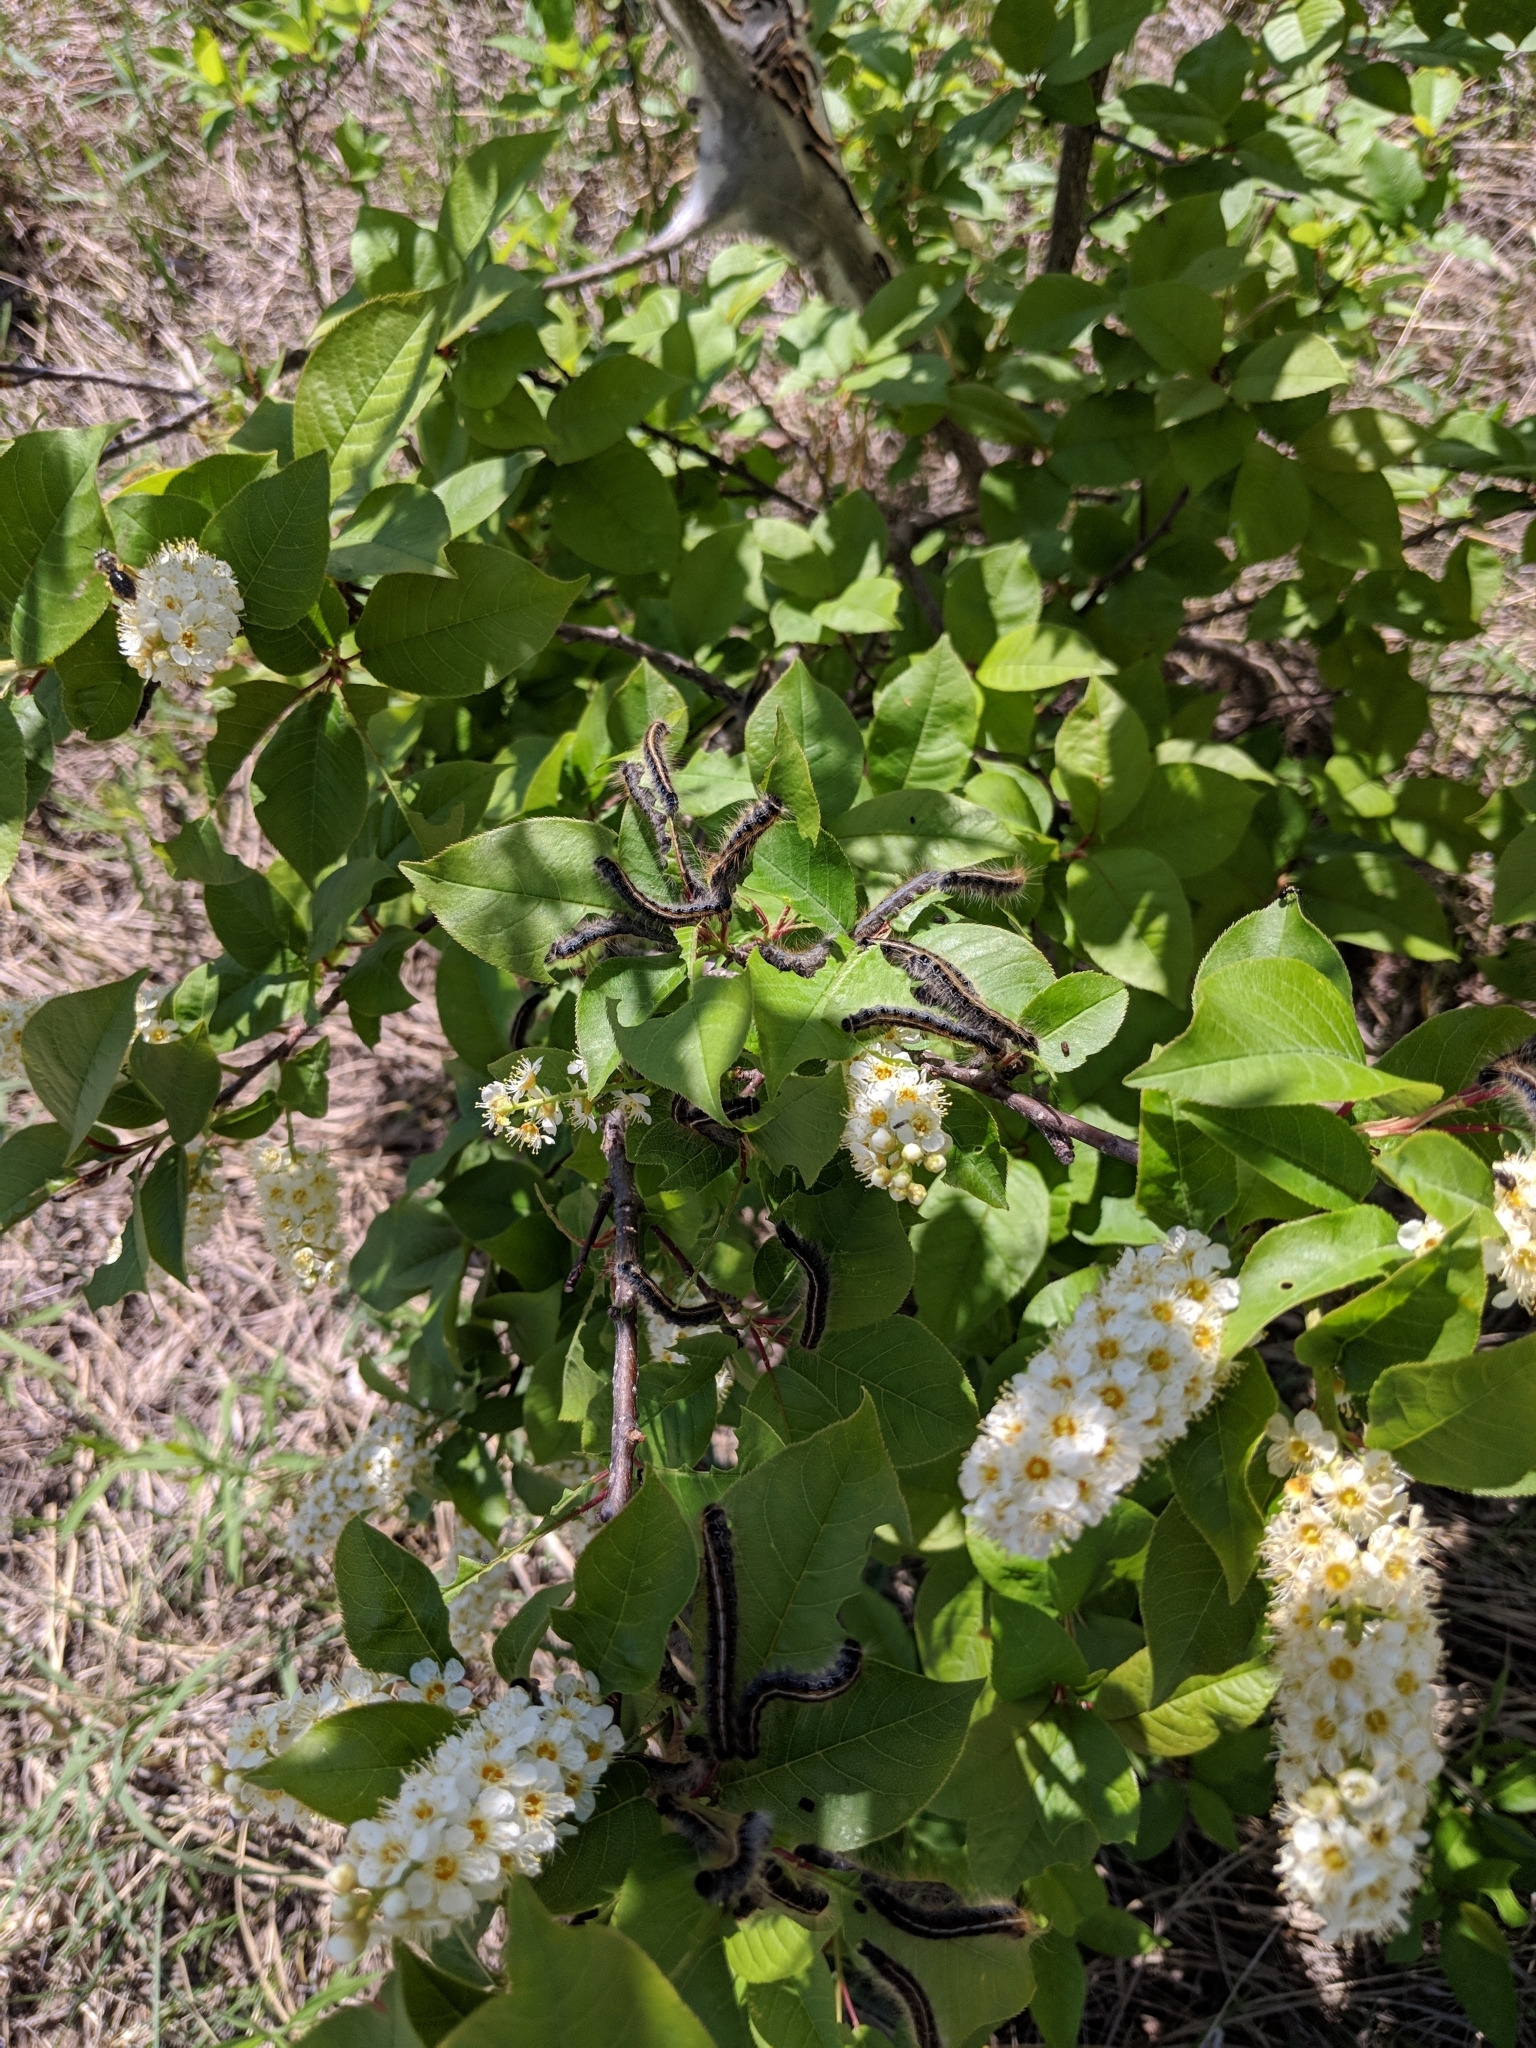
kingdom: Plantae
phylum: Tracheophyta
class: Magnoliopsida
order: Rosales
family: Rosaceae
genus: Prunus
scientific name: Prunus padus
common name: Bird cherry
